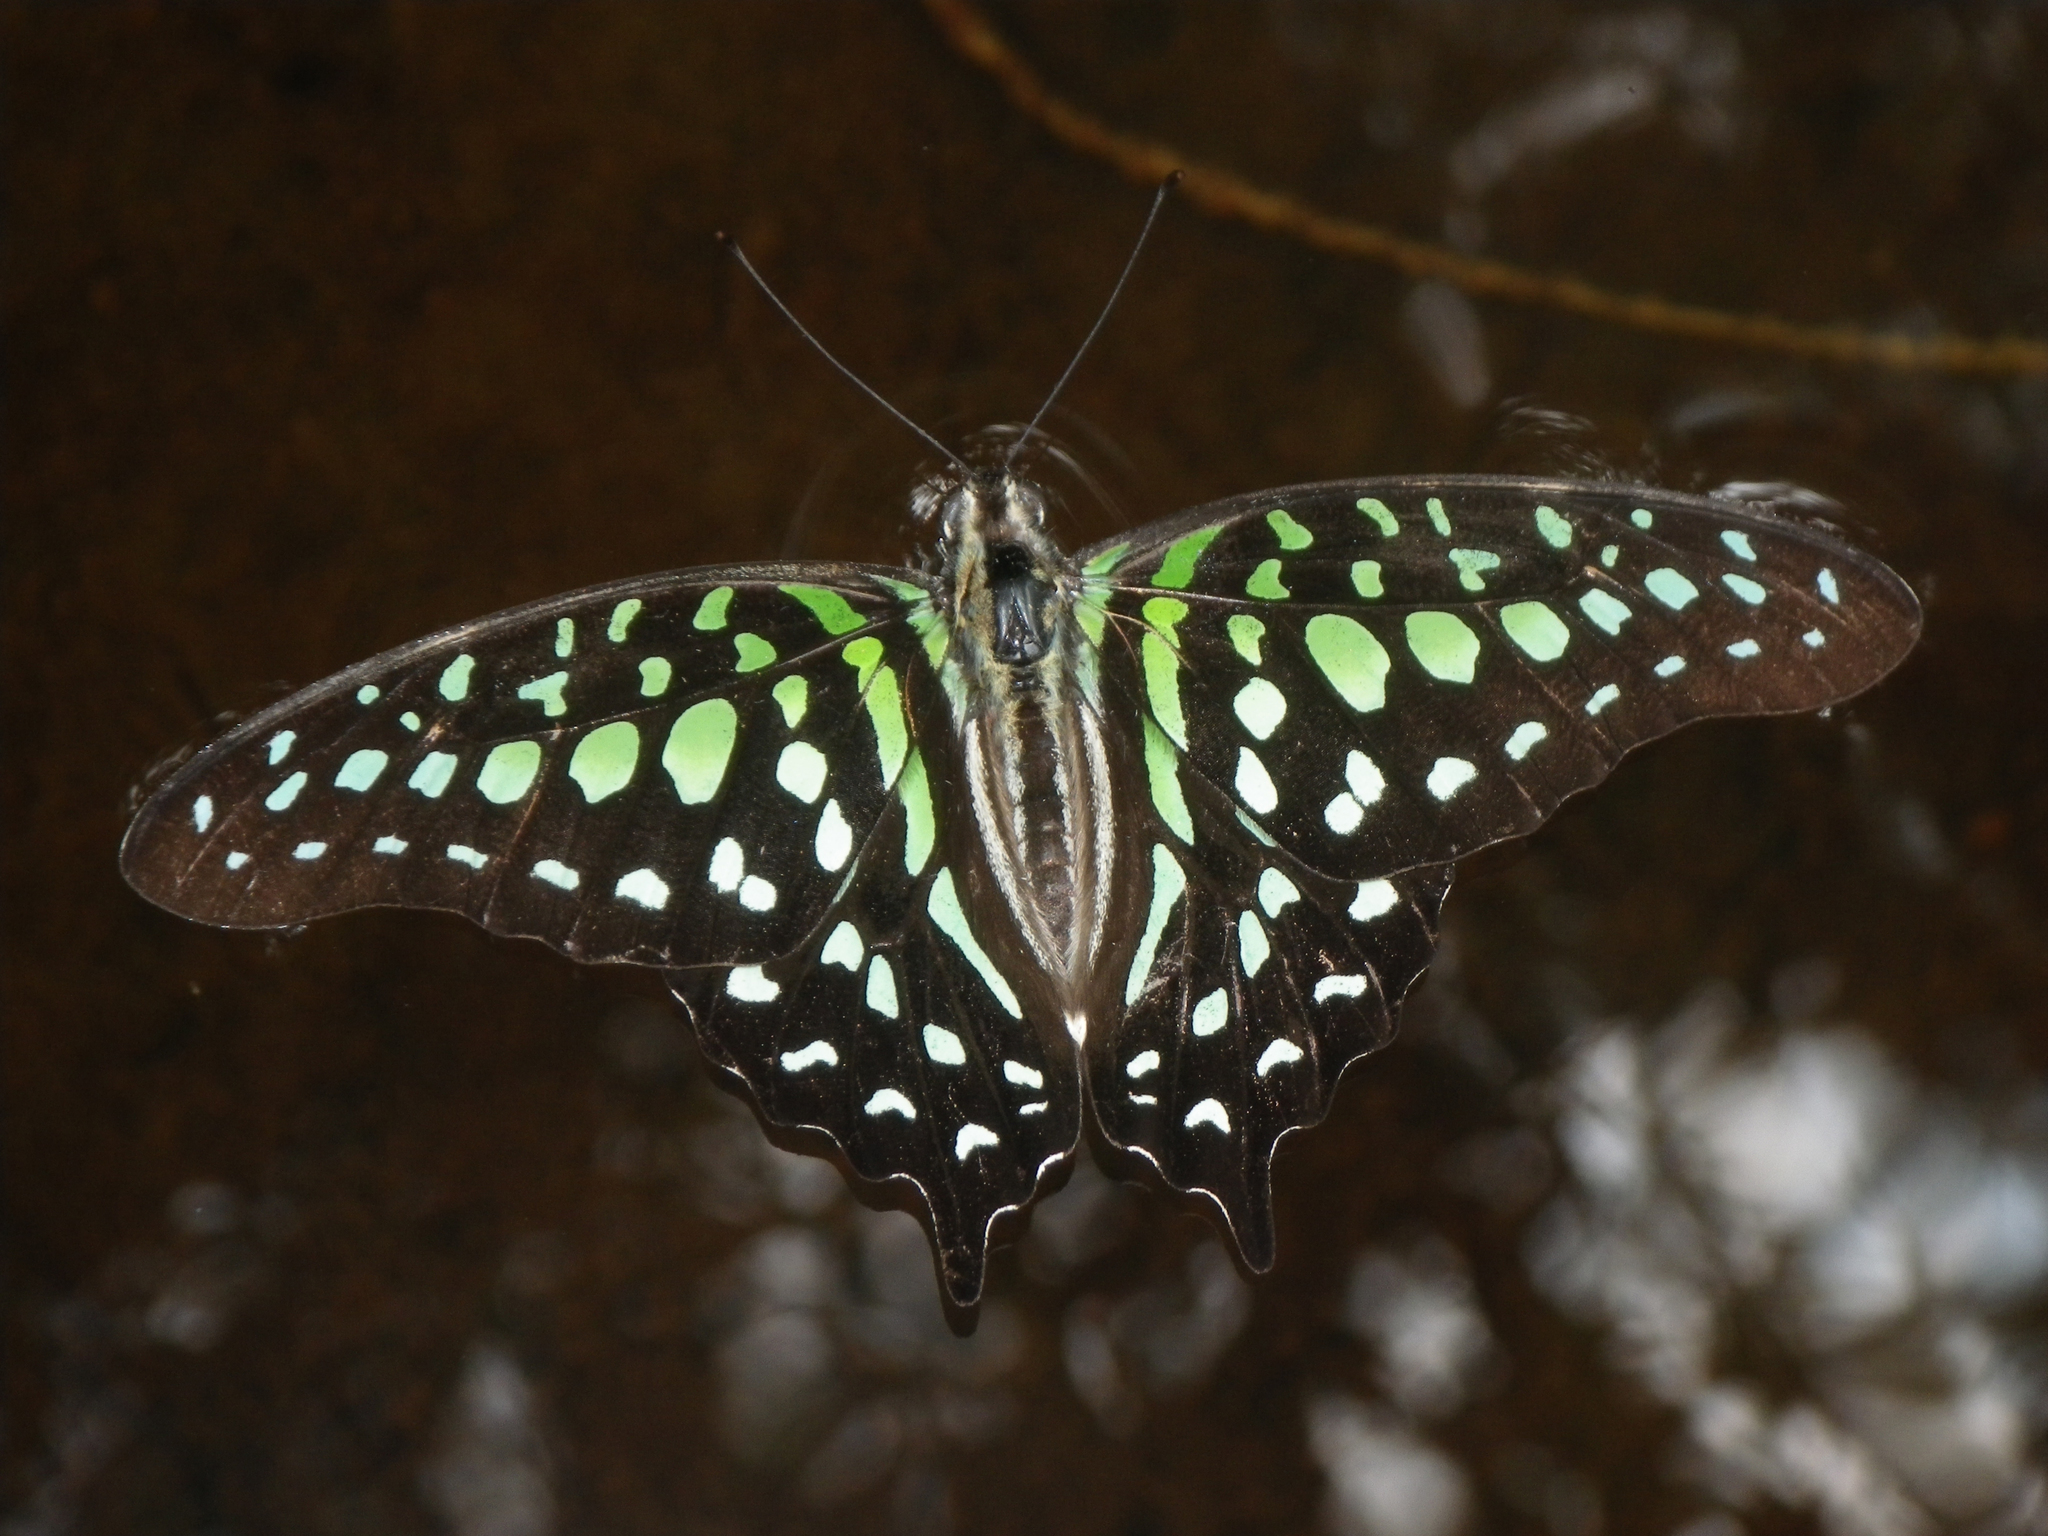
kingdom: Animalia
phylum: Arthropoda
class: Insecta
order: Lepidoptera
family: Papilionidae
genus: Graphium
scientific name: Graphium agamemnon
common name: Tailed jay
